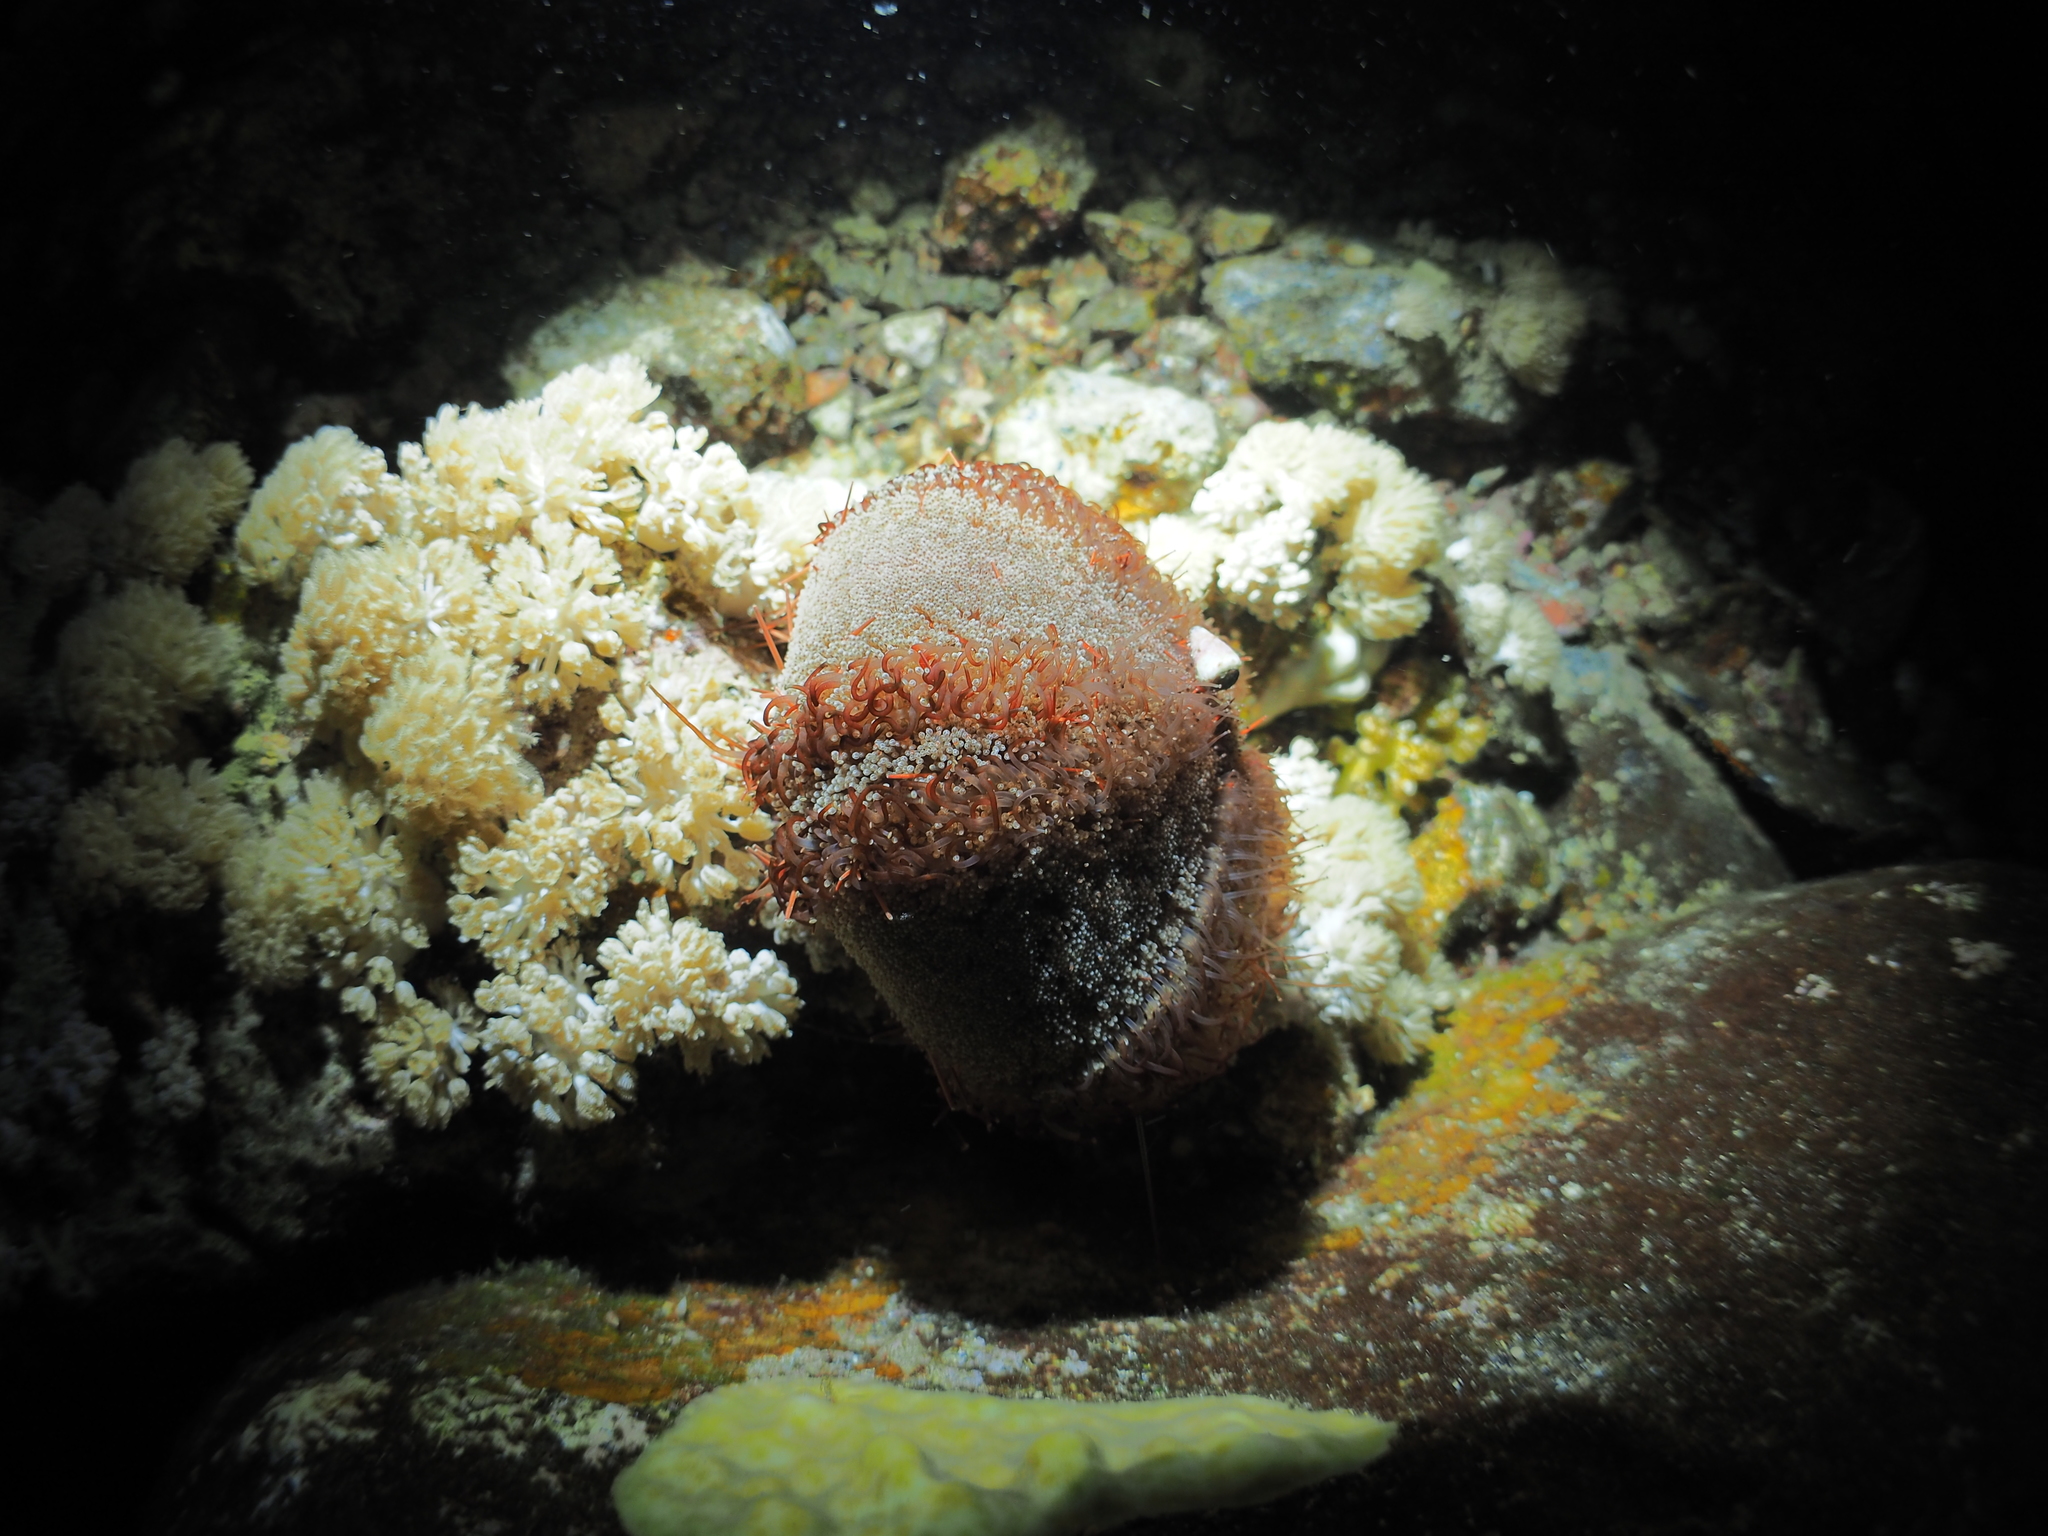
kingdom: Animalia
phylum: Echinodermata
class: Echinoidea
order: Camarodonta
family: Toxopneustidae
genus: Tripneustes
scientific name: Tripneustes gratilla
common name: Bischofsmützenseeigel
